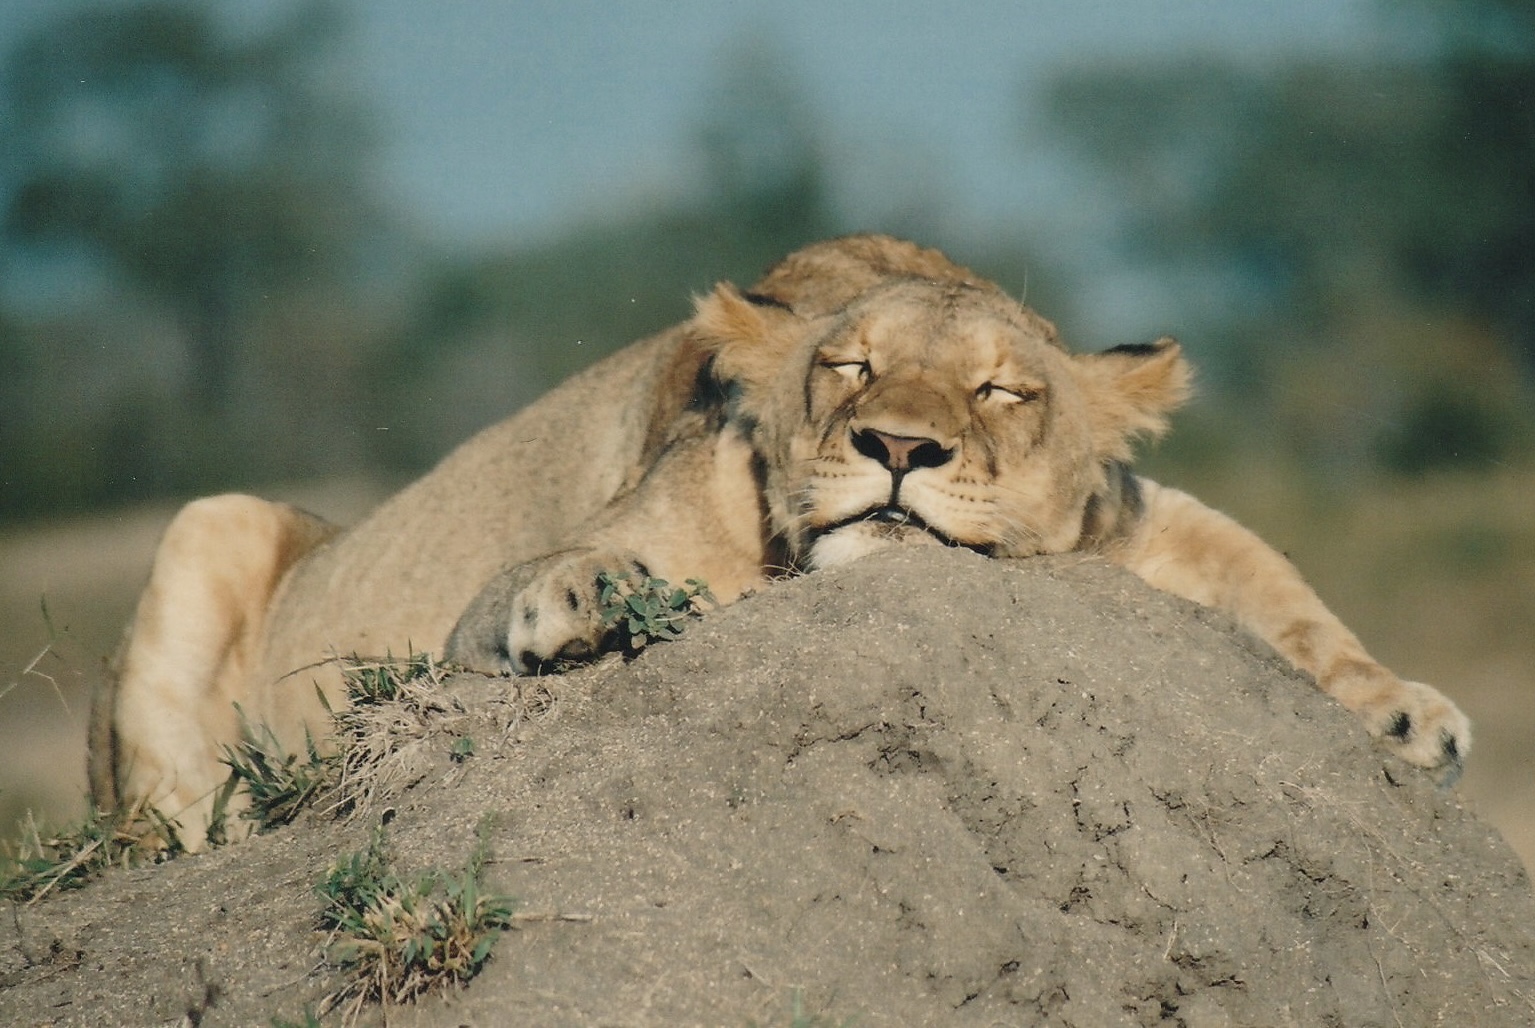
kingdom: Animalia
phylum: Chordata
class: Mammalia
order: Carnivora
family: Felidae
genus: Panthera
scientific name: Panthera leo
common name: Lion
